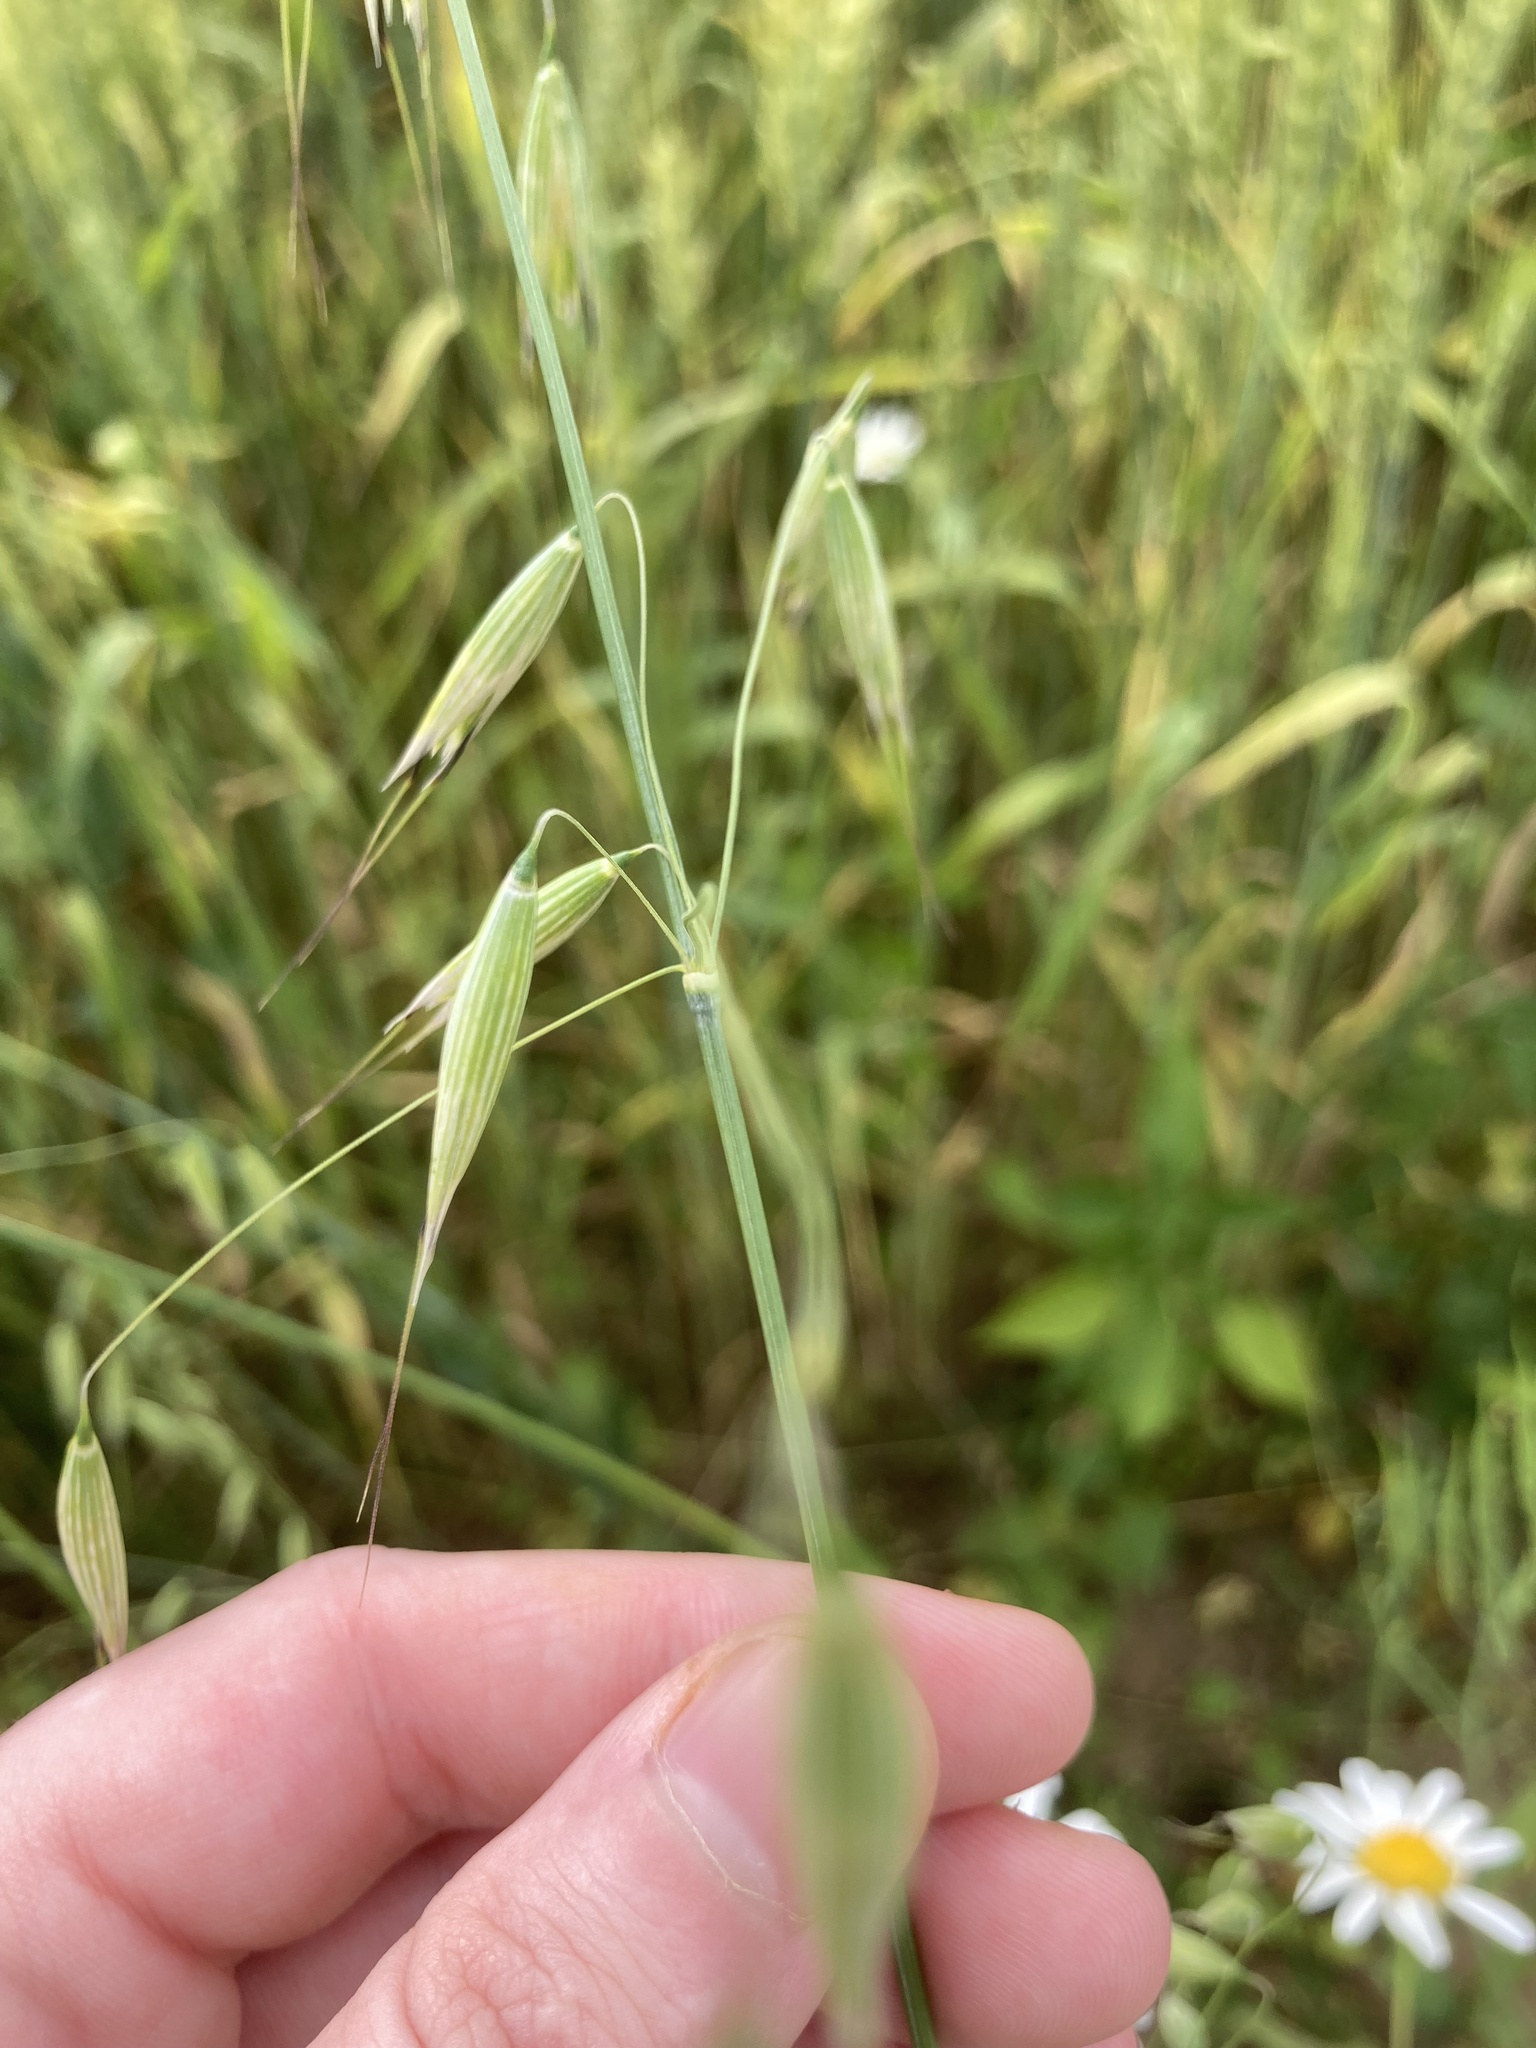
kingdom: Plantae
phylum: Tracheophyta
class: Liliopsida
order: Poales
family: Poaceae
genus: Avena
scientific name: Avena fatua
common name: Wild oat
